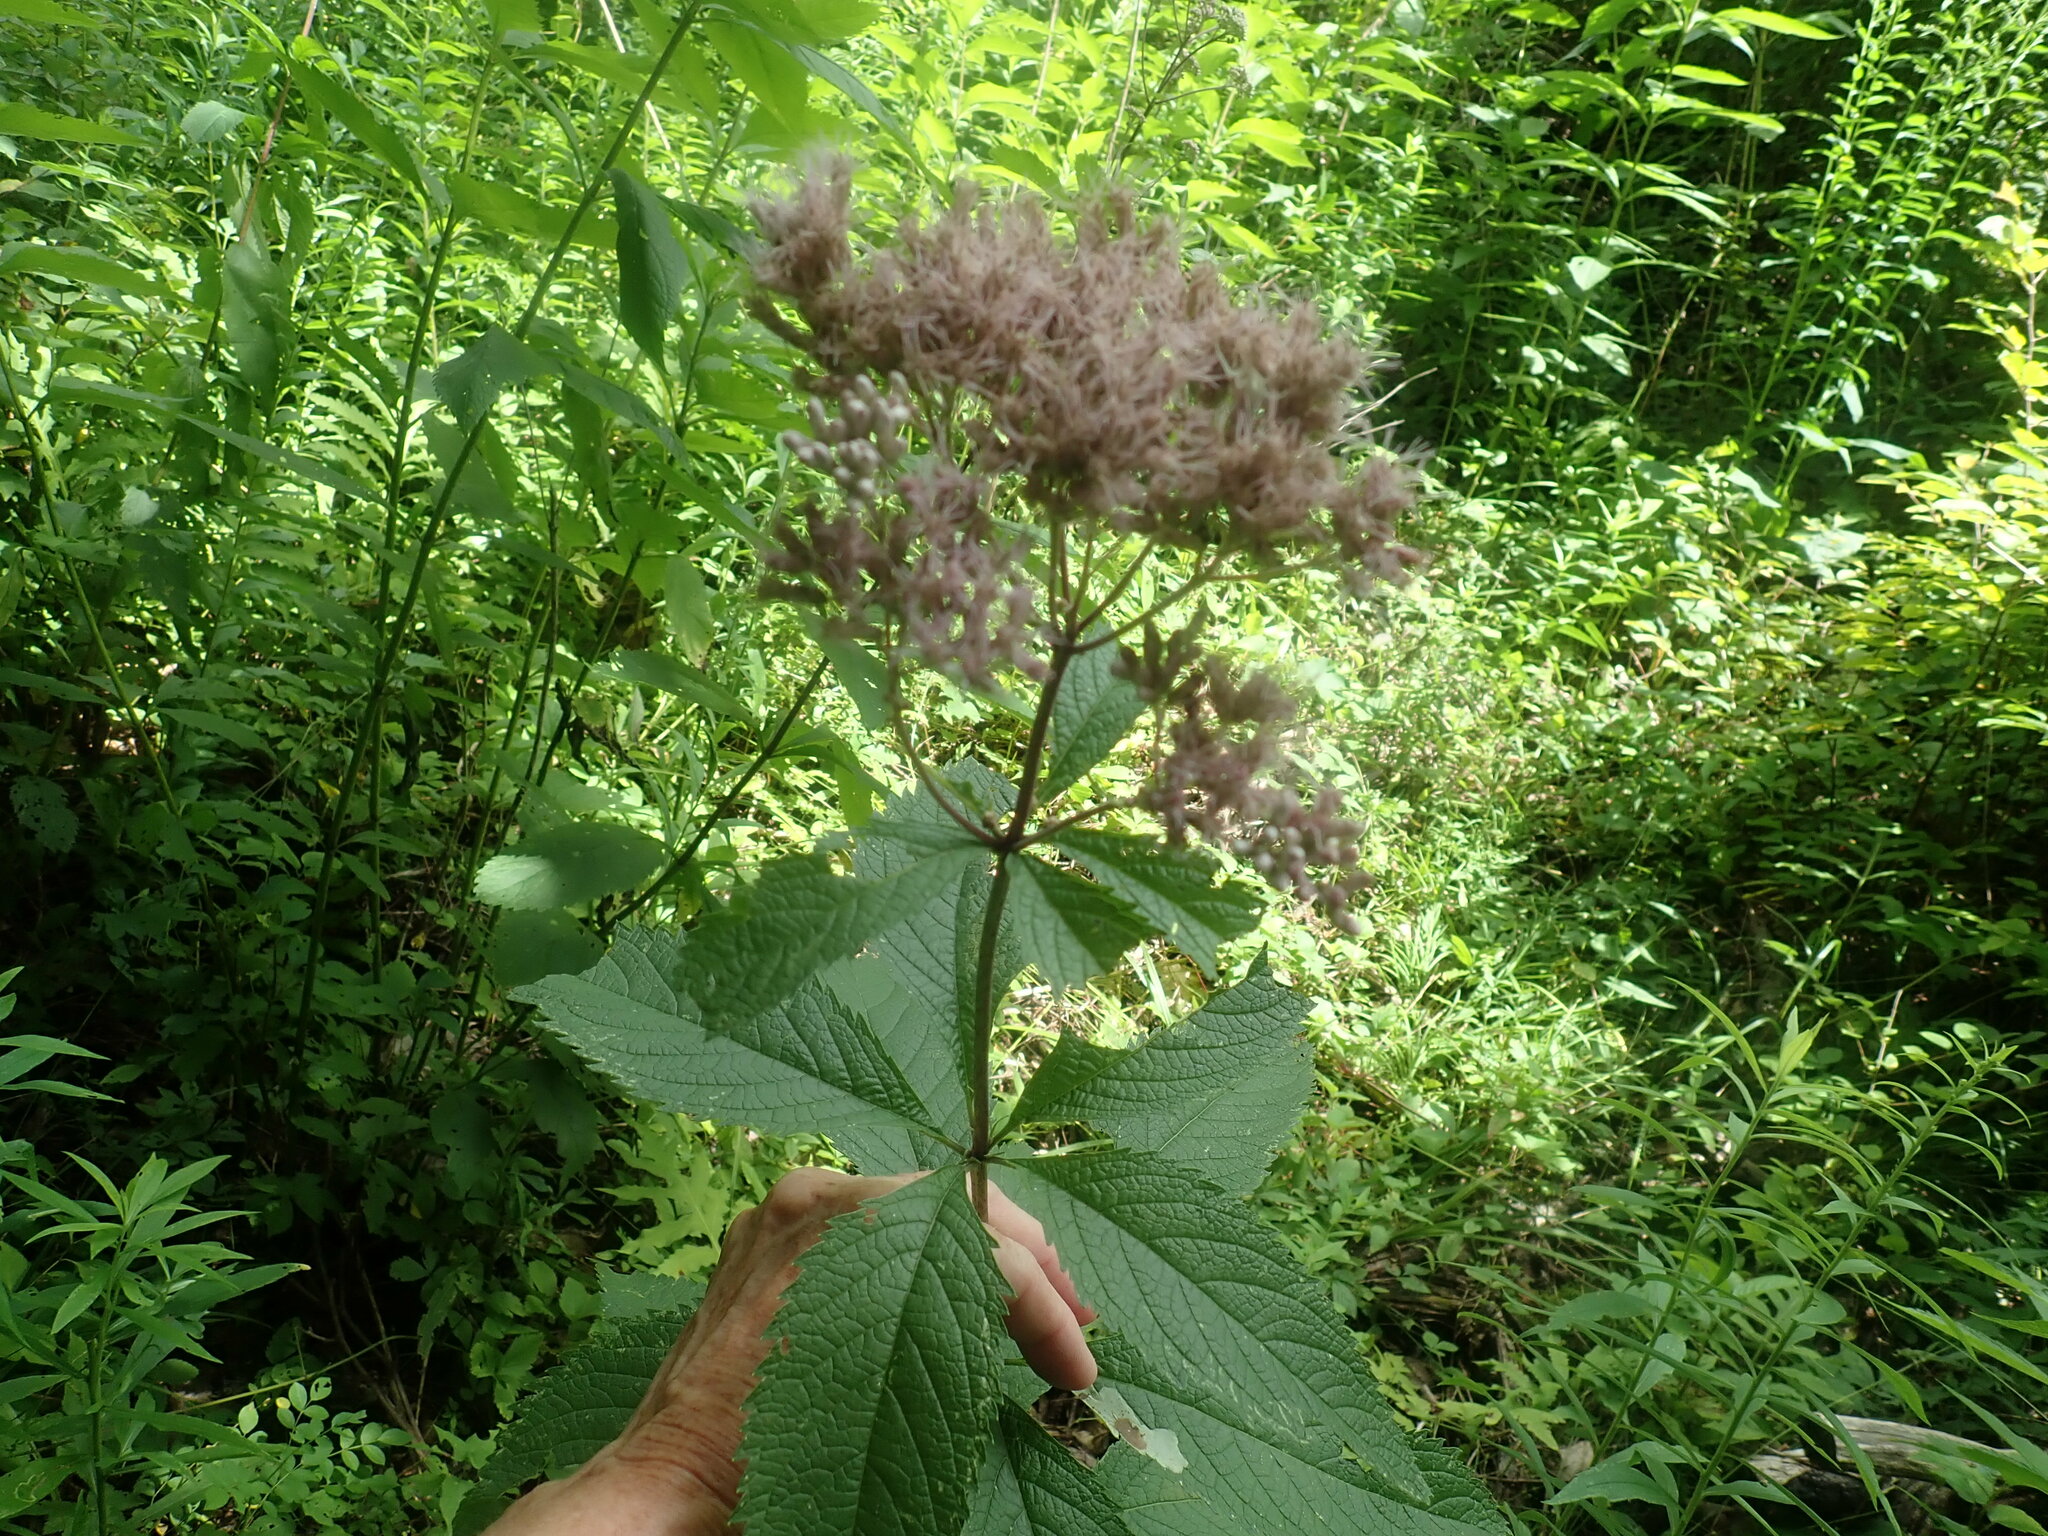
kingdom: Plantae
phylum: Tracheophyta
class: Magnoliopsida
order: Asterales
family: Asteraceae
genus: Eutrochium
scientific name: Eutrochium
